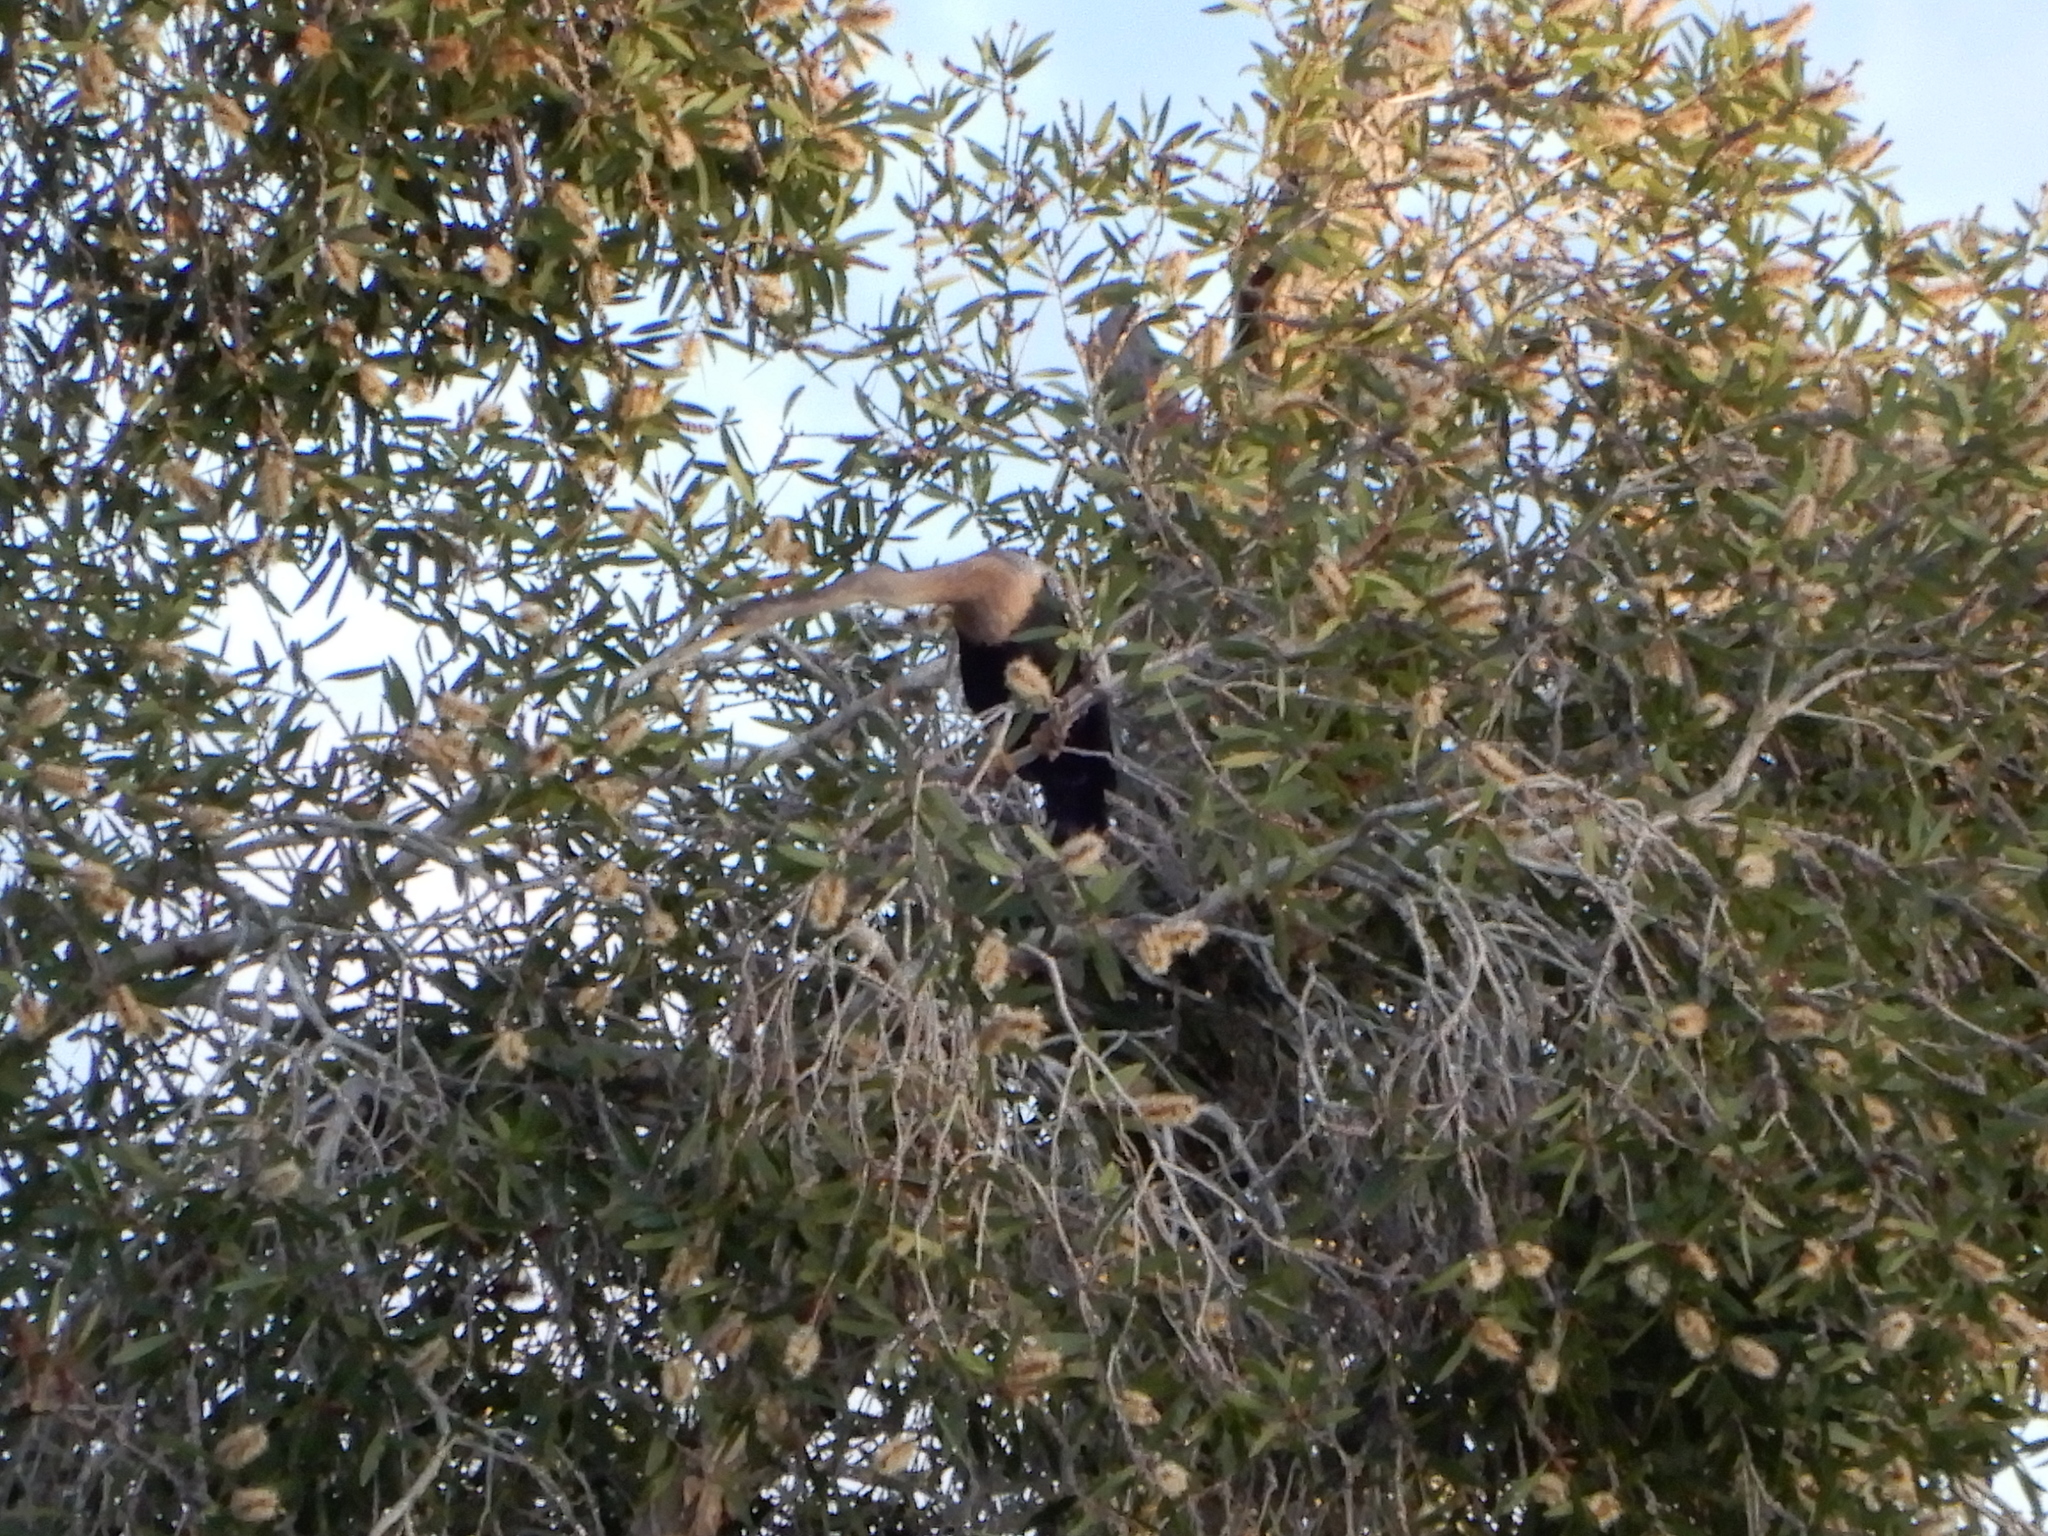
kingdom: Animalia
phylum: Chordata
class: Aves
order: Suliformes
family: Anhingidae
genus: Anhinga
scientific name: Anhinga anhinga
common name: Anhinga
